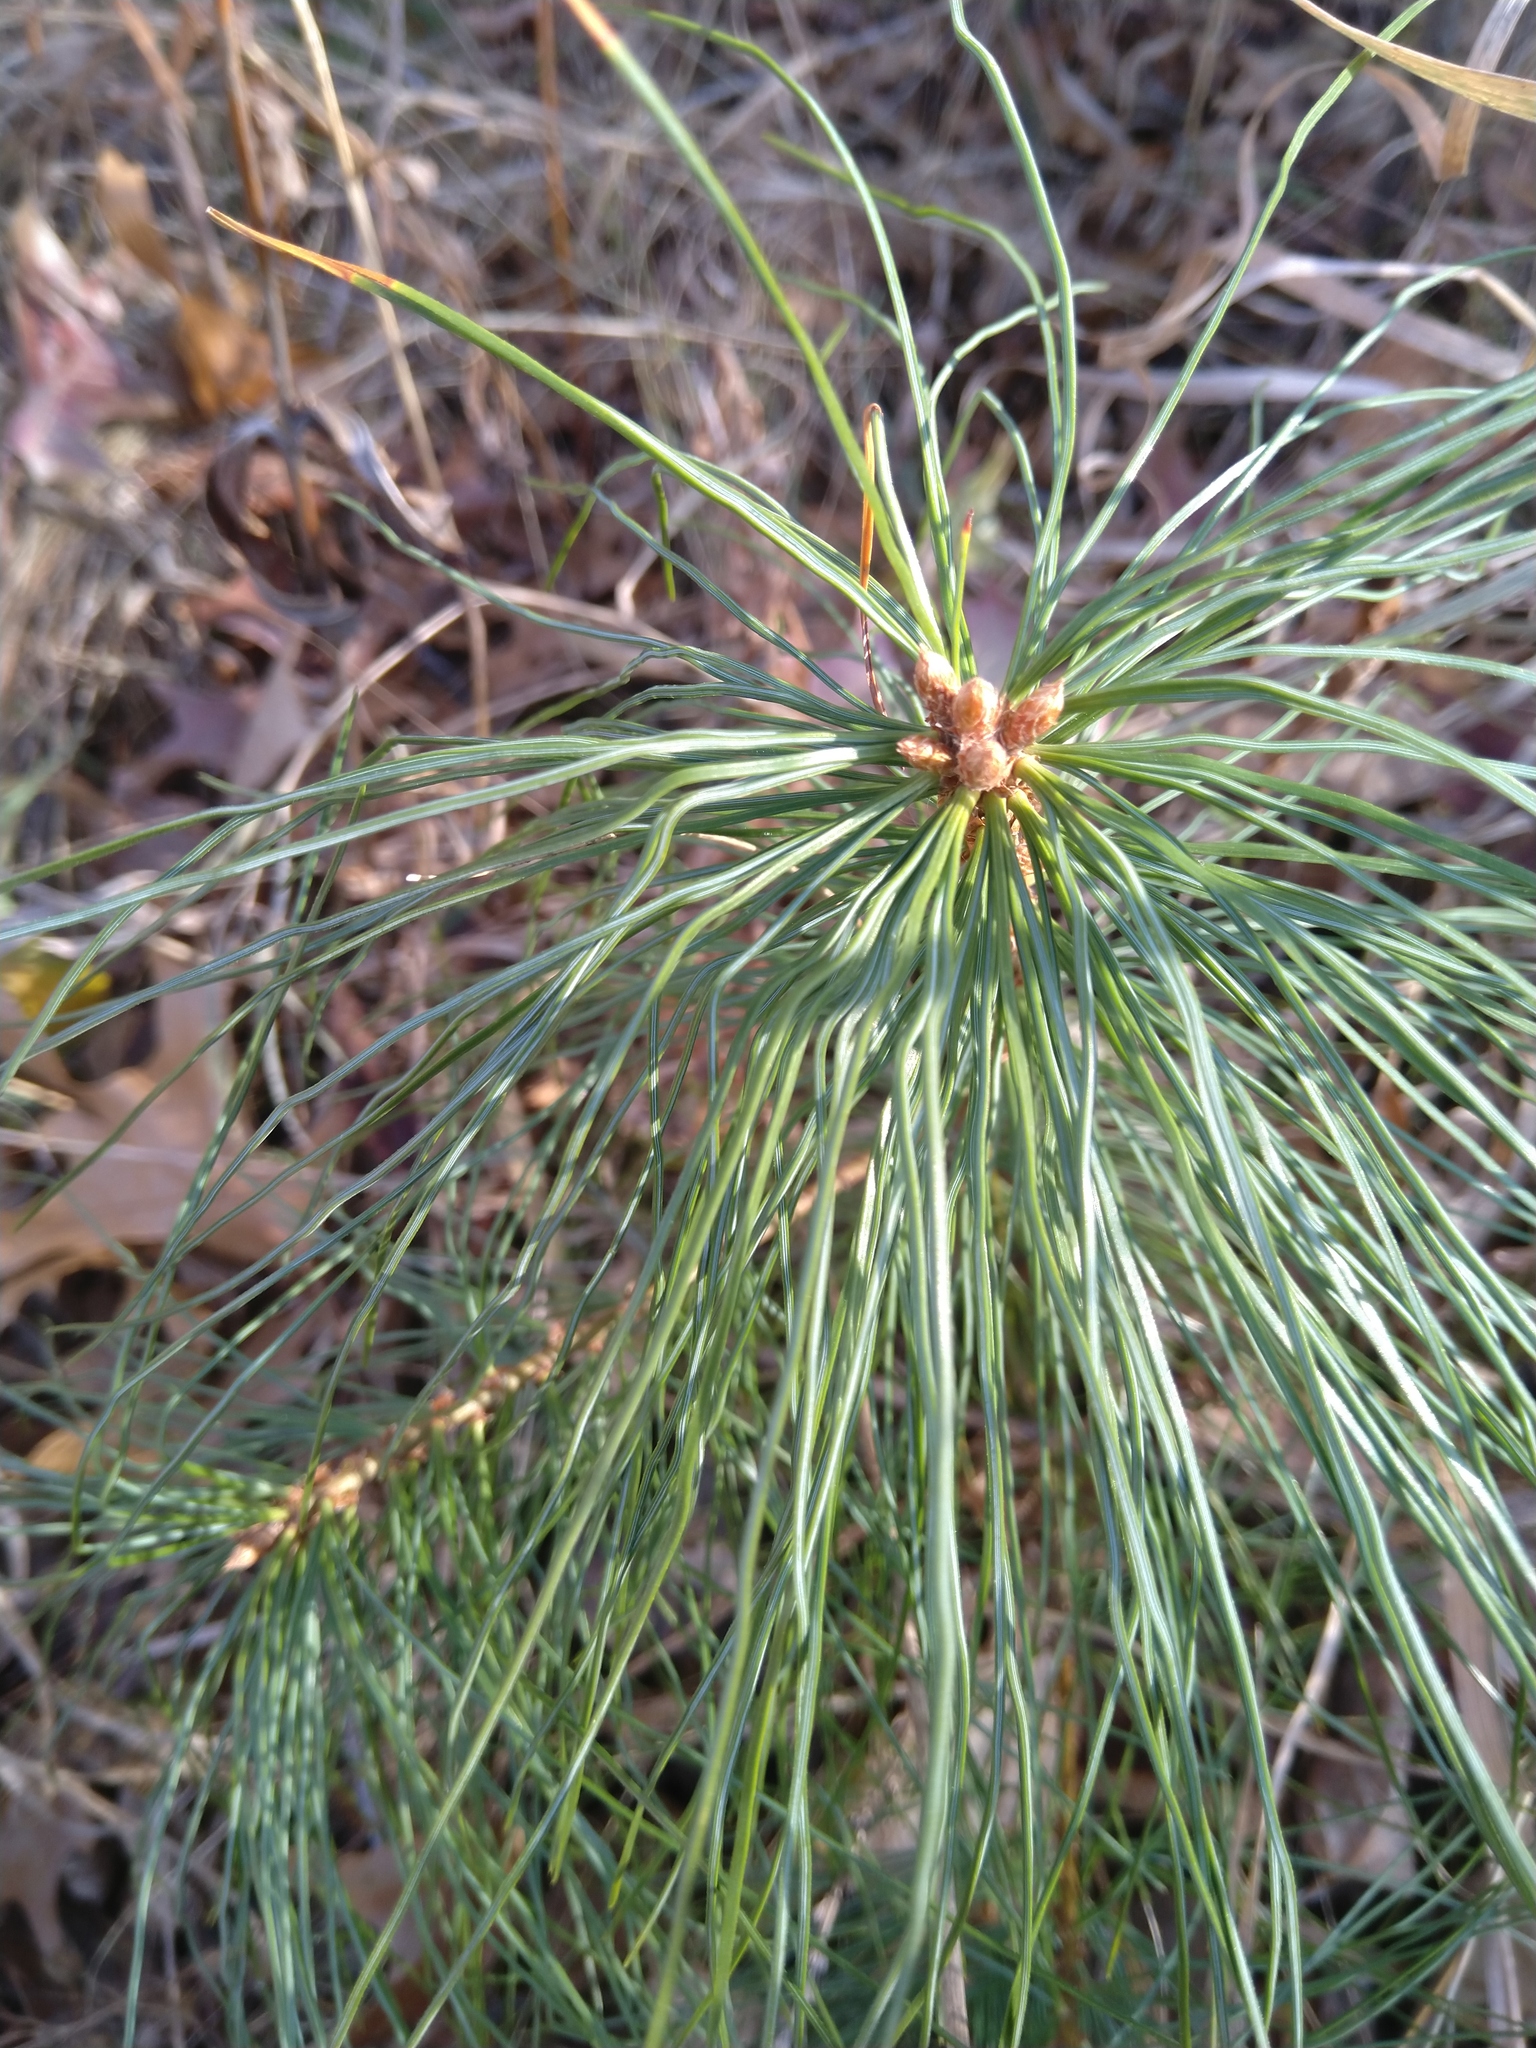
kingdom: Plantae
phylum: Tracheophyta
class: Pinopsida
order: Pinales
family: Pinaceae
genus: Pinus
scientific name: Pinus strobus
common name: Weymouth pine
